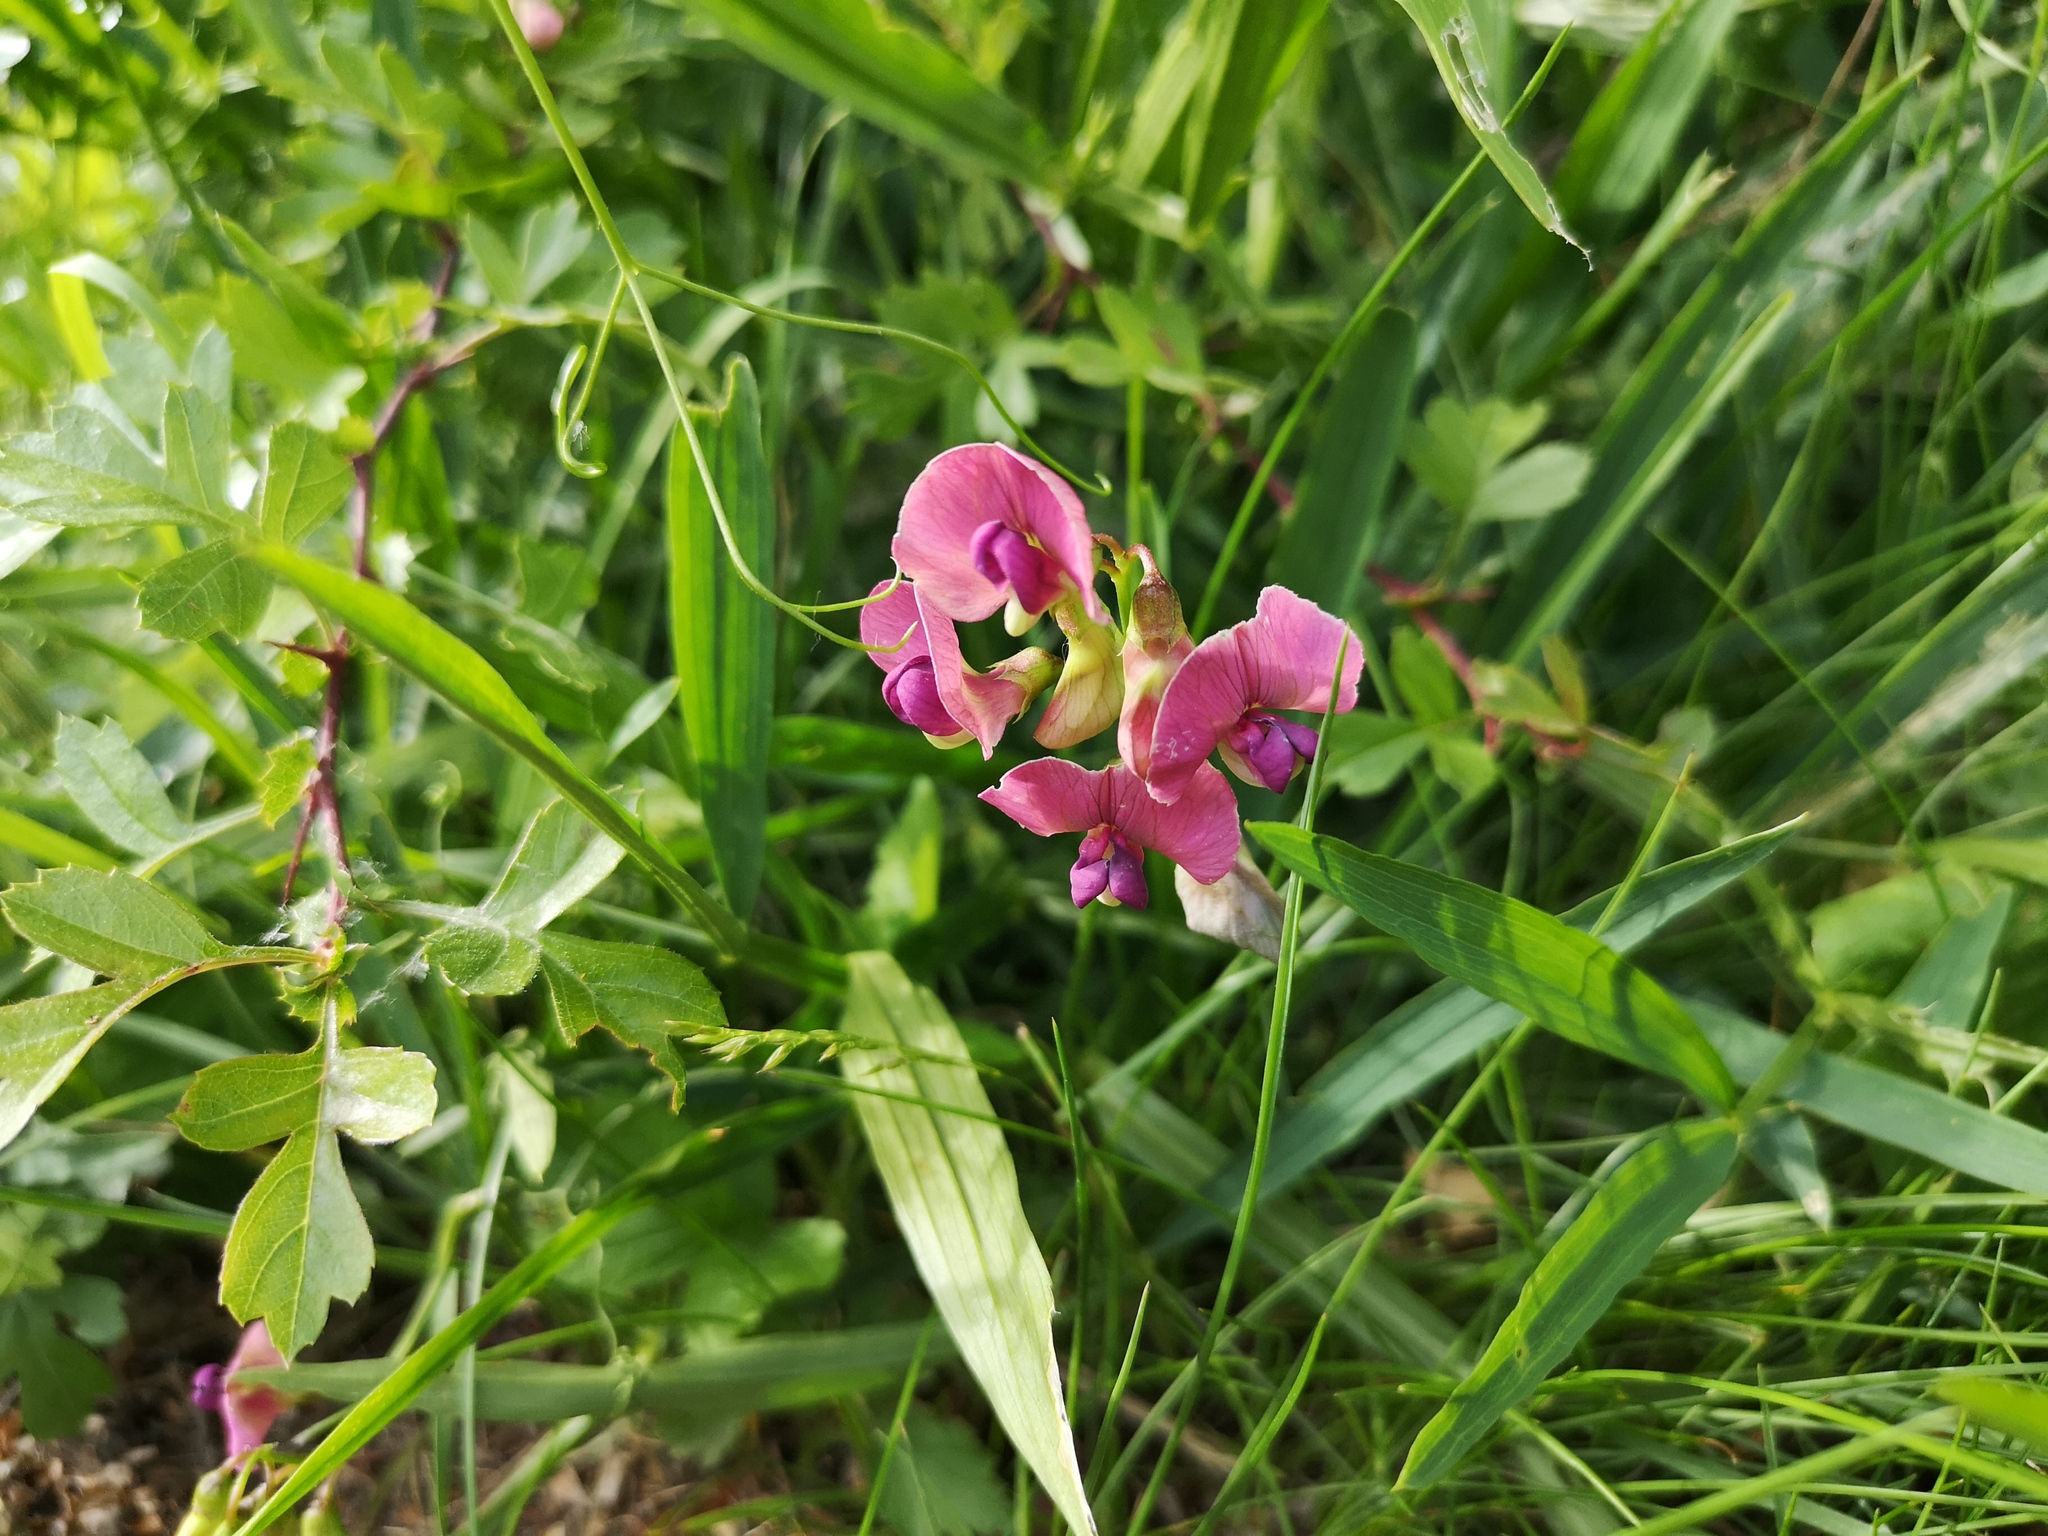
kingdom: Plantae
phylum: Tracheophyta
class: Magnoliopsida
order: Fabales
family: Fabaceae
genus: Lathyrus
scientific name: Lathyrus sylvestris
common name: Flat pea
